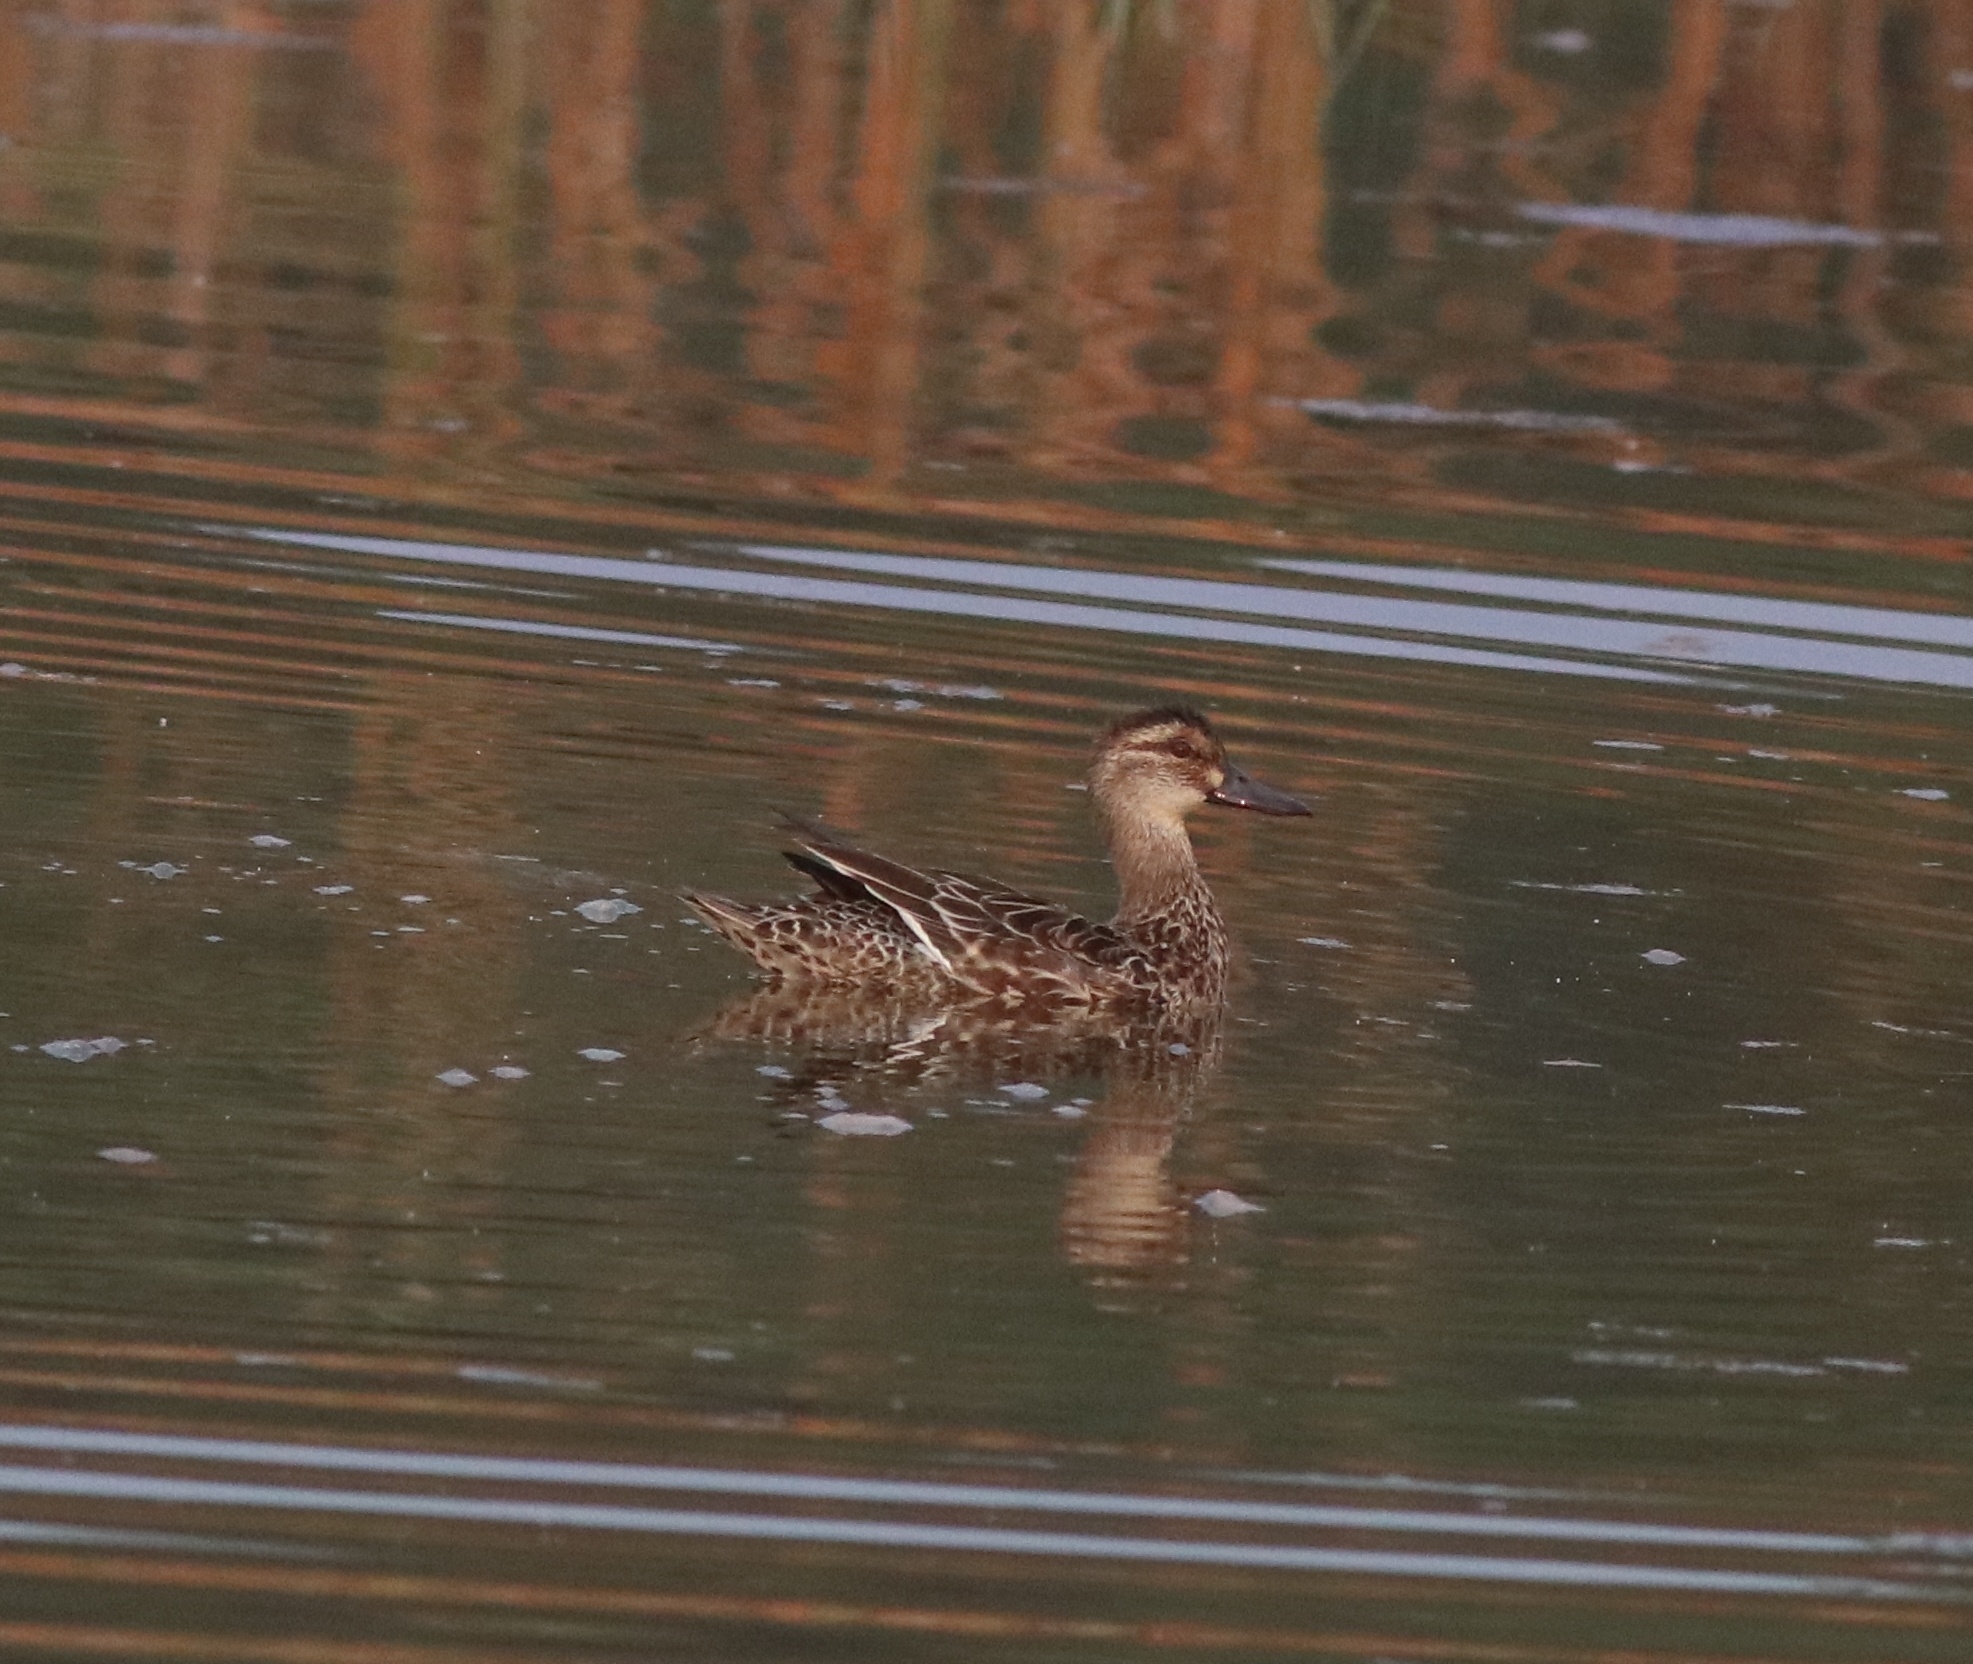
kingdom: Animalia
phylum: Chordata
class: Aves
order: Anseriformes
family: Anatidae
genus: Spatula
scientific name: Spatula querquedula
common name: Garganey
